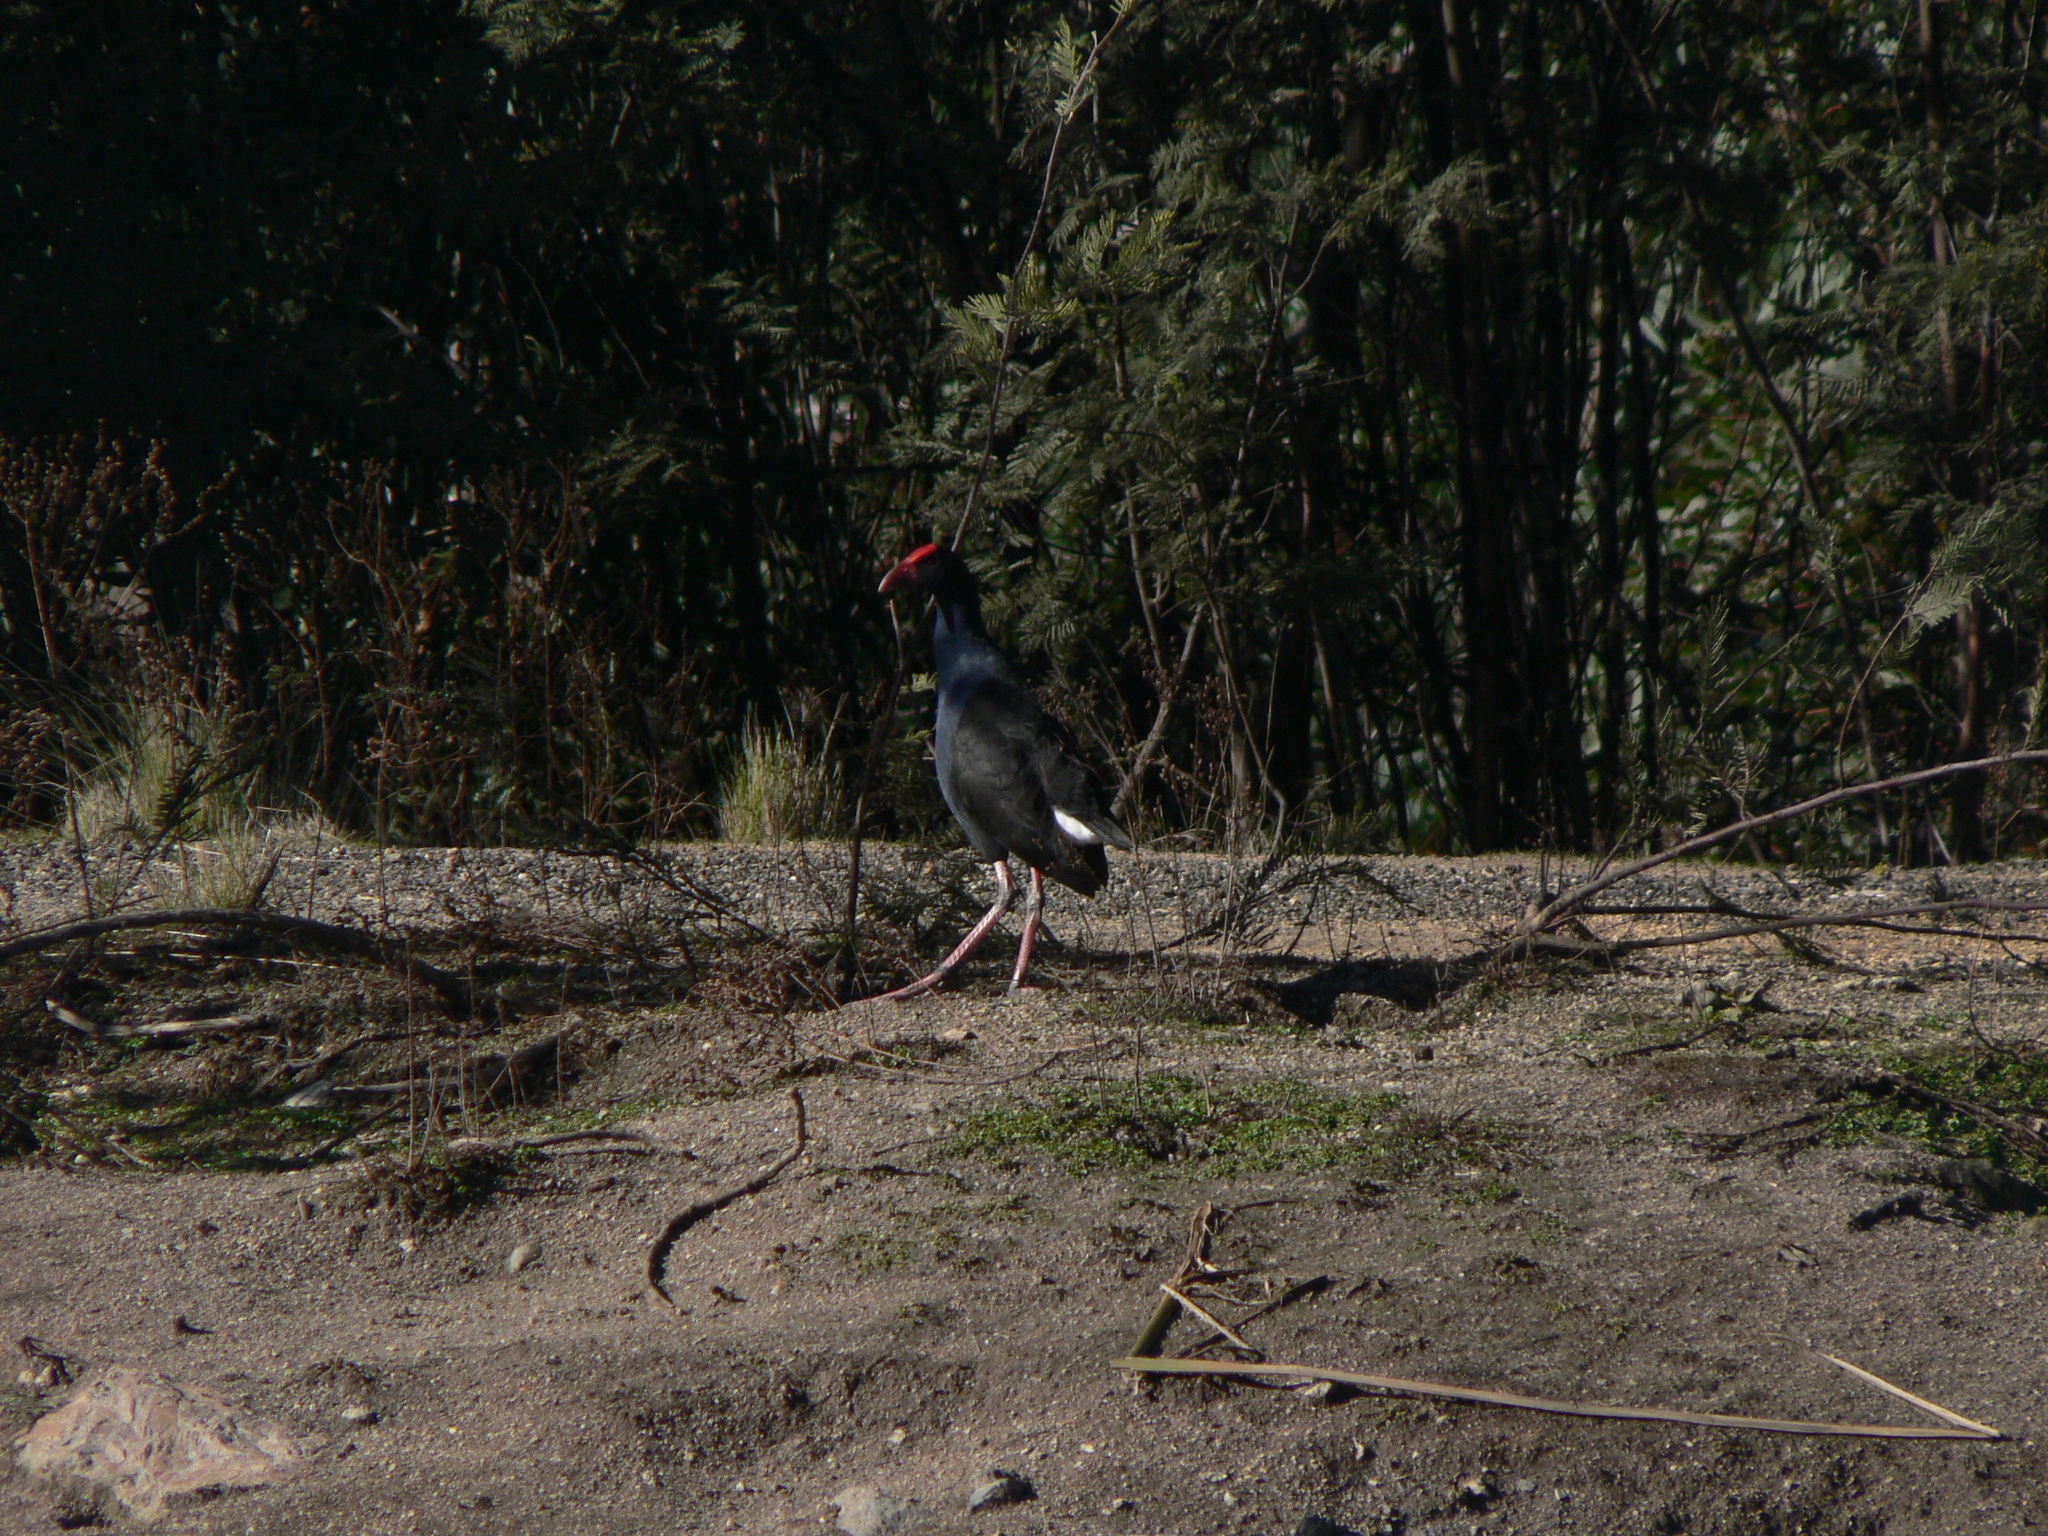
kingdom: Animalia
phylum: Chordata
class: Aves
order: Gruiformes
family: Rallidae
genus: Porphyrio
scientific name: Porphyrio melanotus
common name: Australasian swamphen
